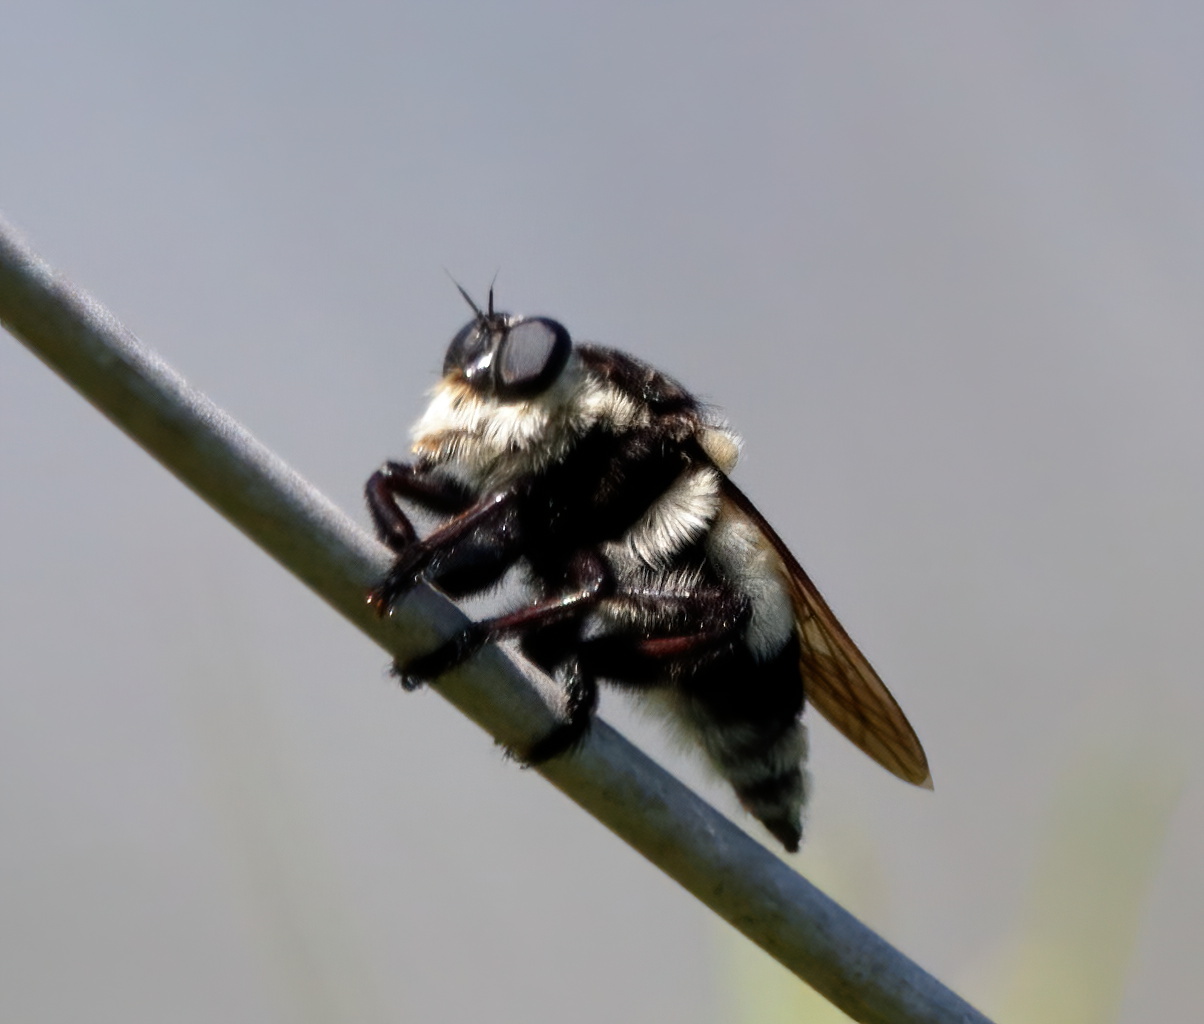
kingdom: Animalia
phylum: Arthropoda
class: Insecta
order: Diptera
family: Asilidae
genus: Mallophora
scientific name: Mallophora orcina
